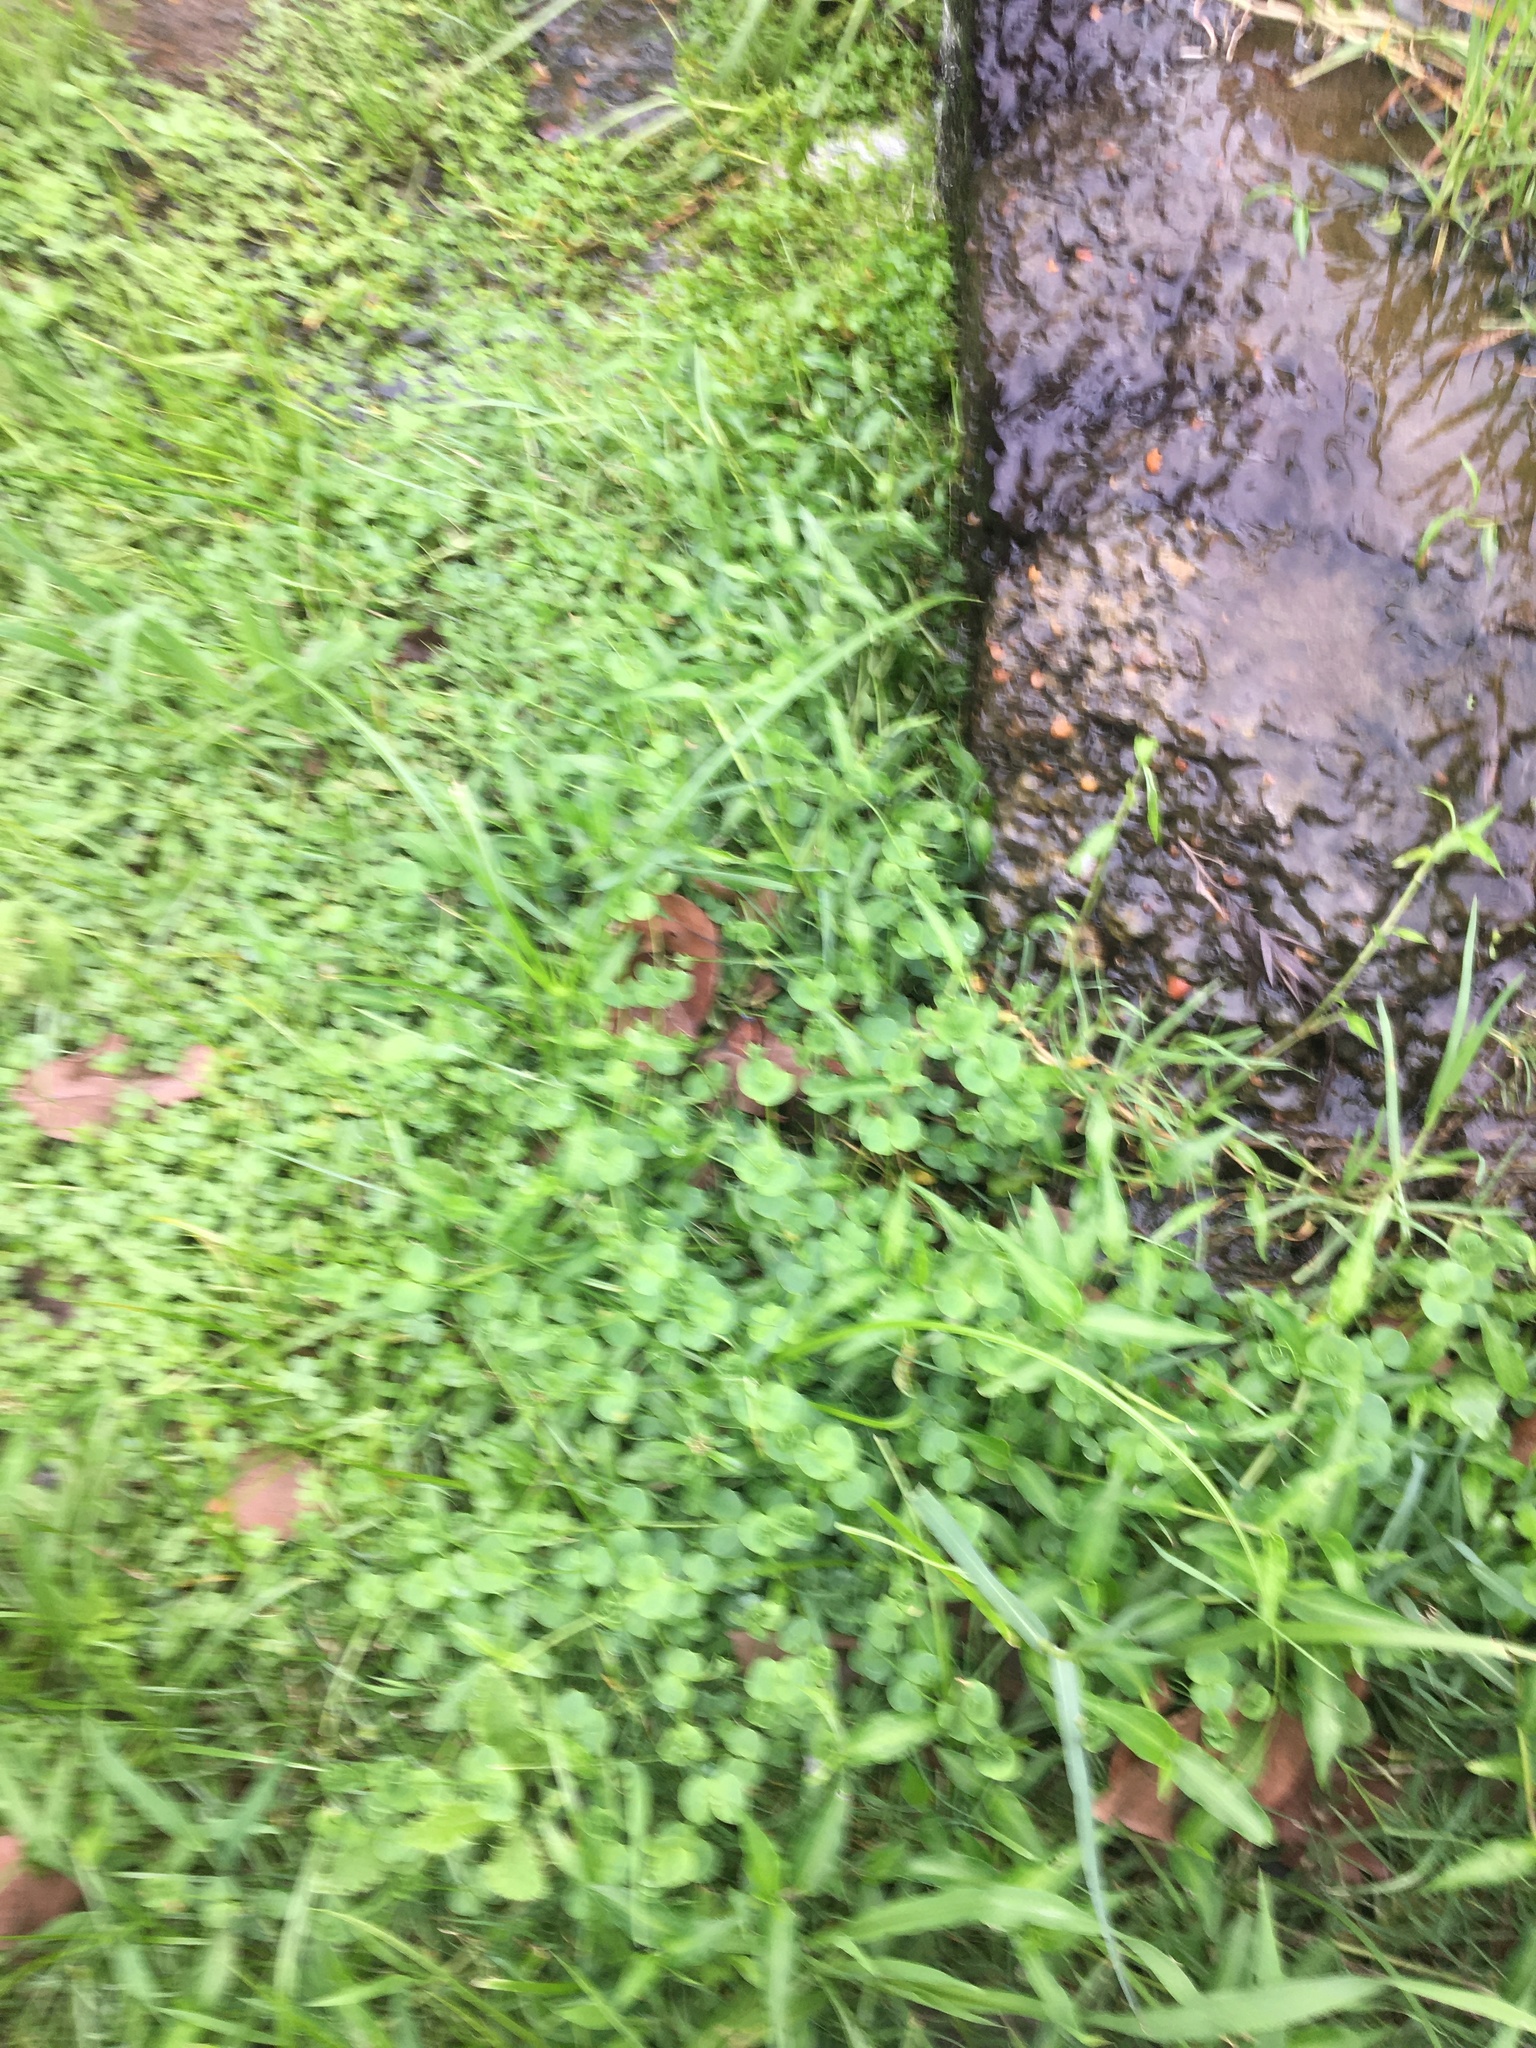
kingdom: Plantae
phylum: Tracheophyta
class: Magnoliopsida
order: Caryophyllales
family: Caryophyllaceae
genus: Drymaria
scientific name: Drymaria cordata
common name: Whitesnow
